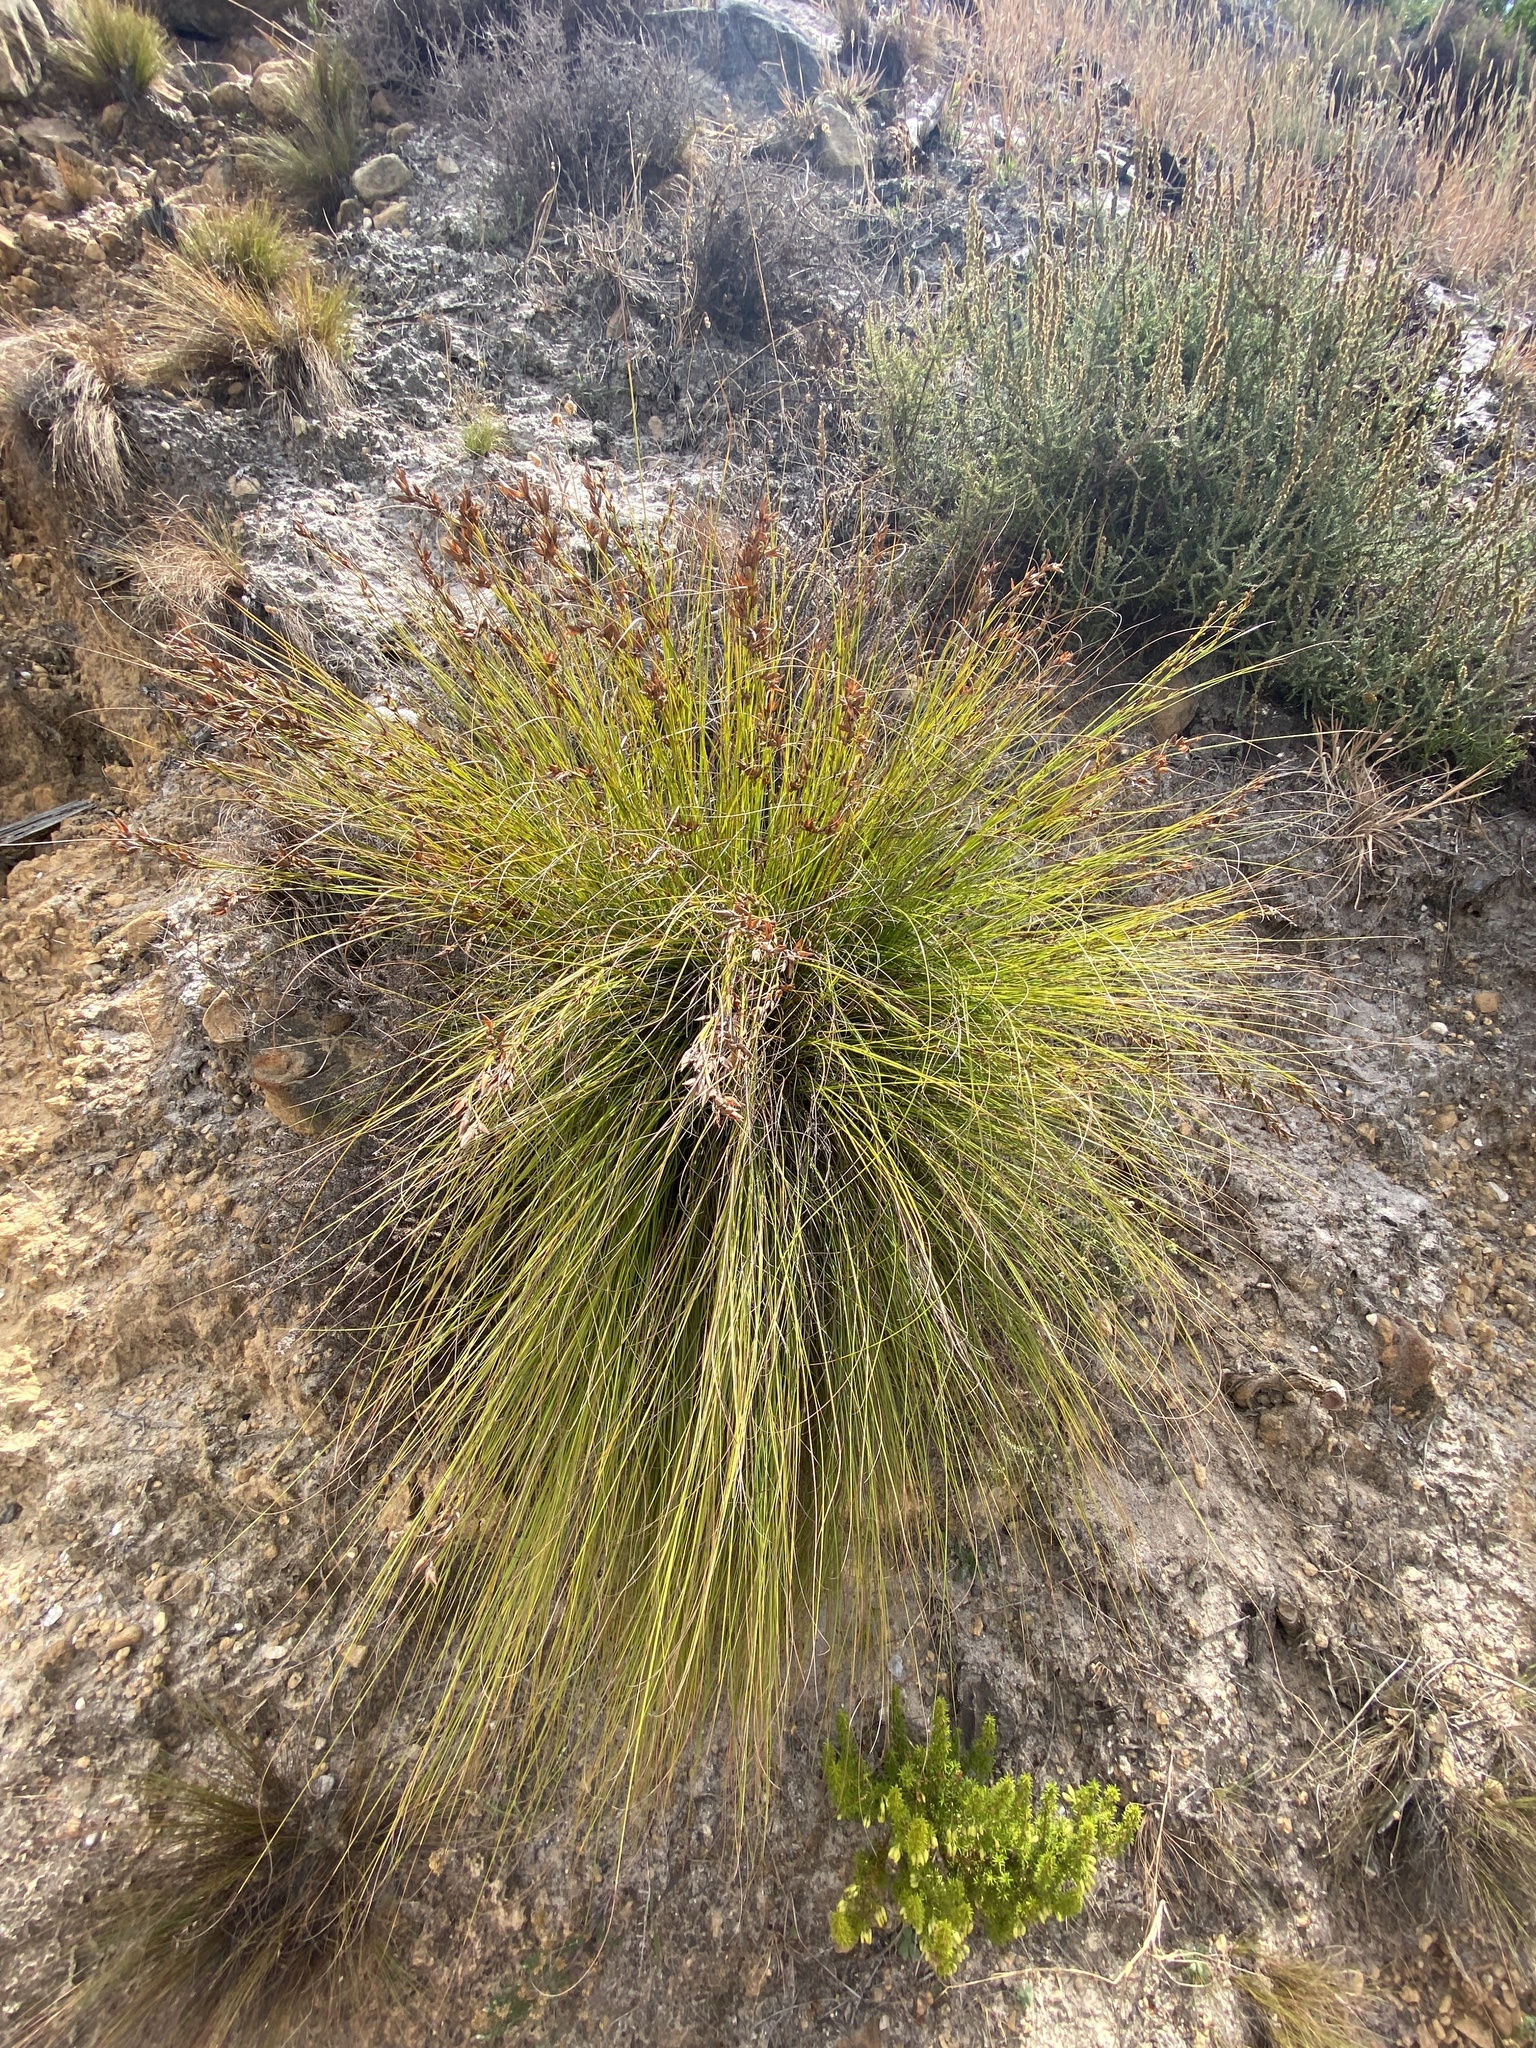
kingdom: Plantae
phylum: Tracheophyta
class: Liliopsida
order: Poales
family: Cyperaceae
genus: Tetraria
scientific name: Tetraria microstachys
